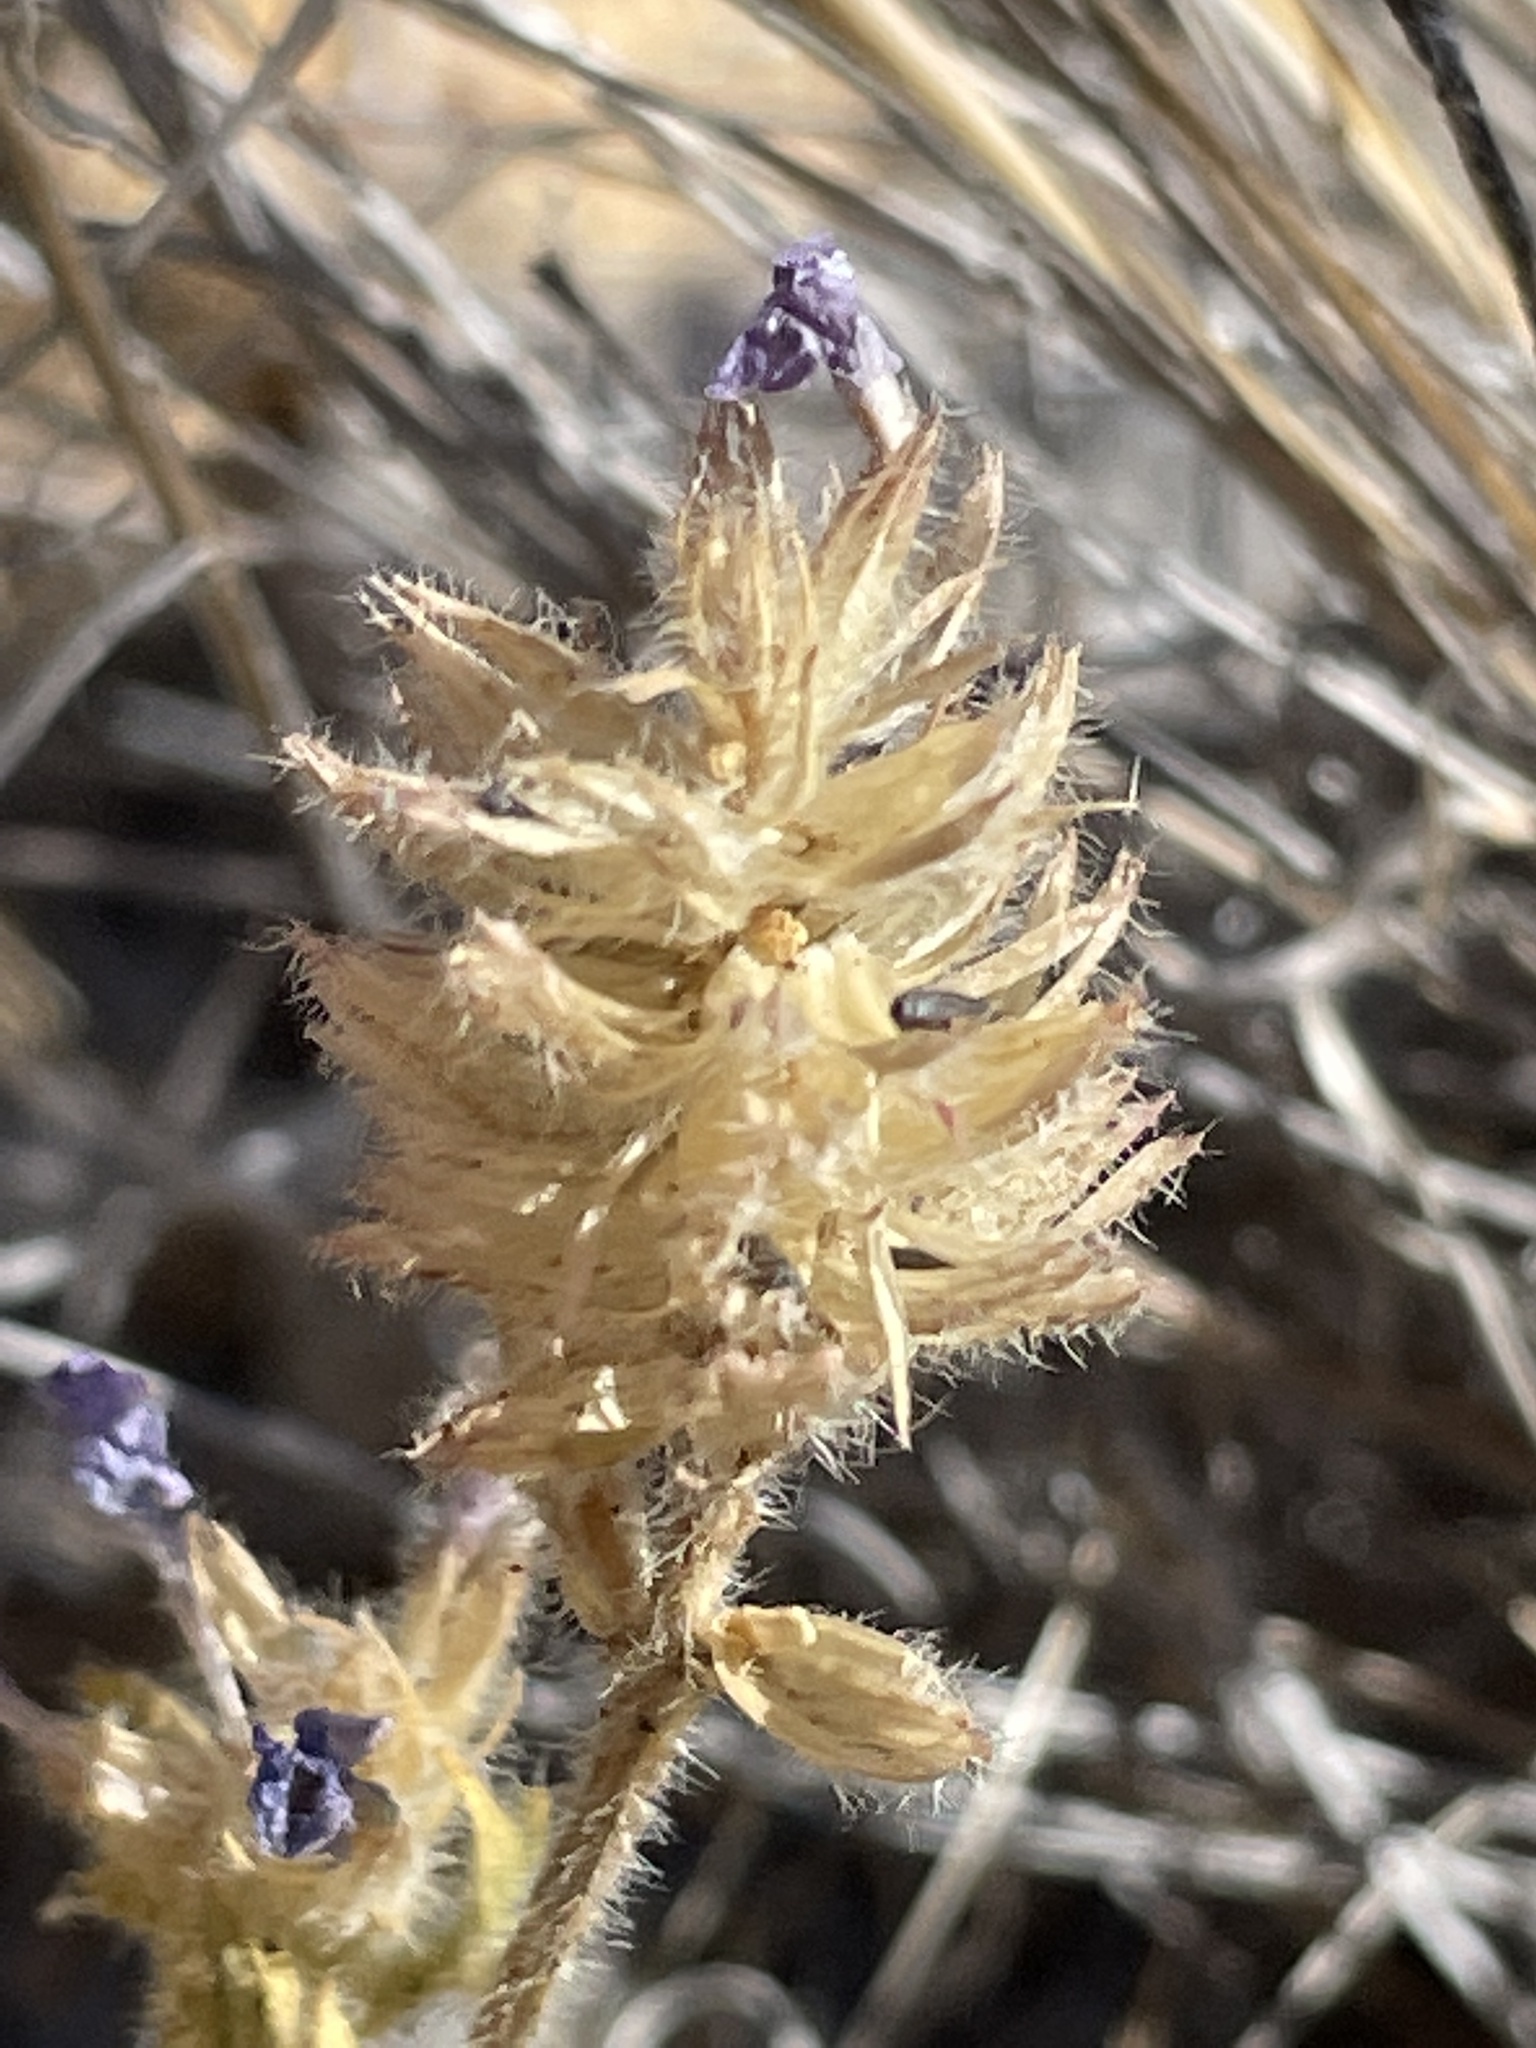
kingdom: Plantae
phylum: Tracheophyta
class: Magnoliopsida
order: Lamiales
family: Verbenaceae
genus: Verbena
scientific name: Verbena gooddingii
